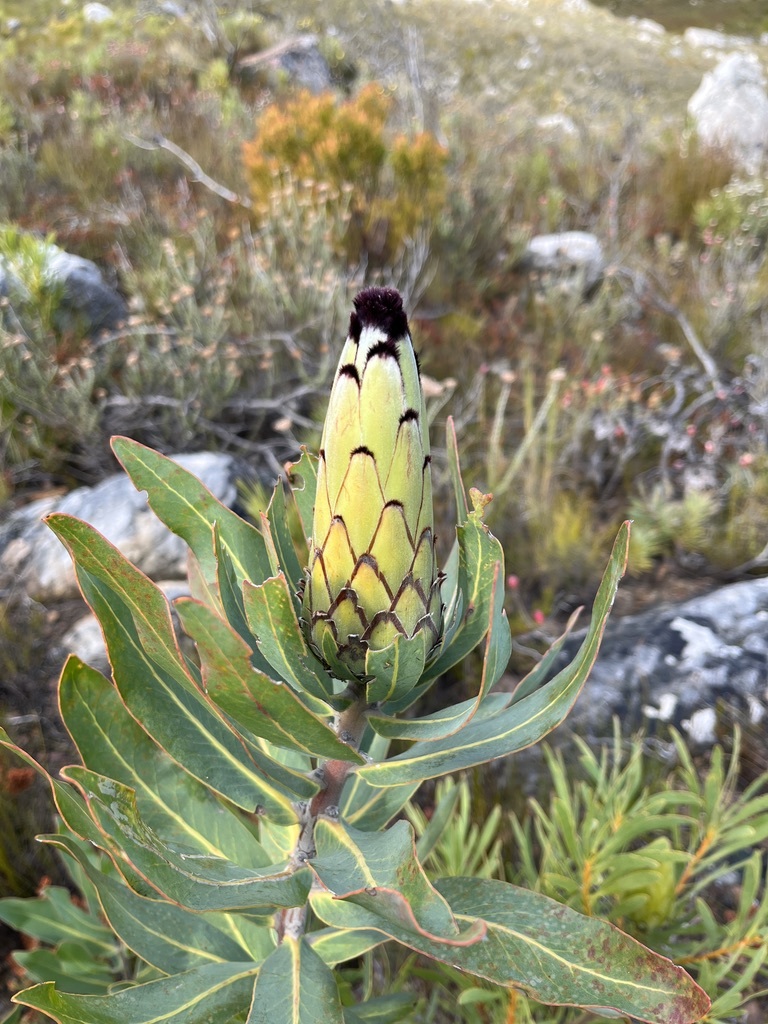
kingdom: Plantae
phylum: Tracheophyta
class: Magnoliopsida
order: Proteales
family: Proteaceae
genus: Protea
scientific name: Protea laurifolia
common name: Grey-leaf sugarbsh
